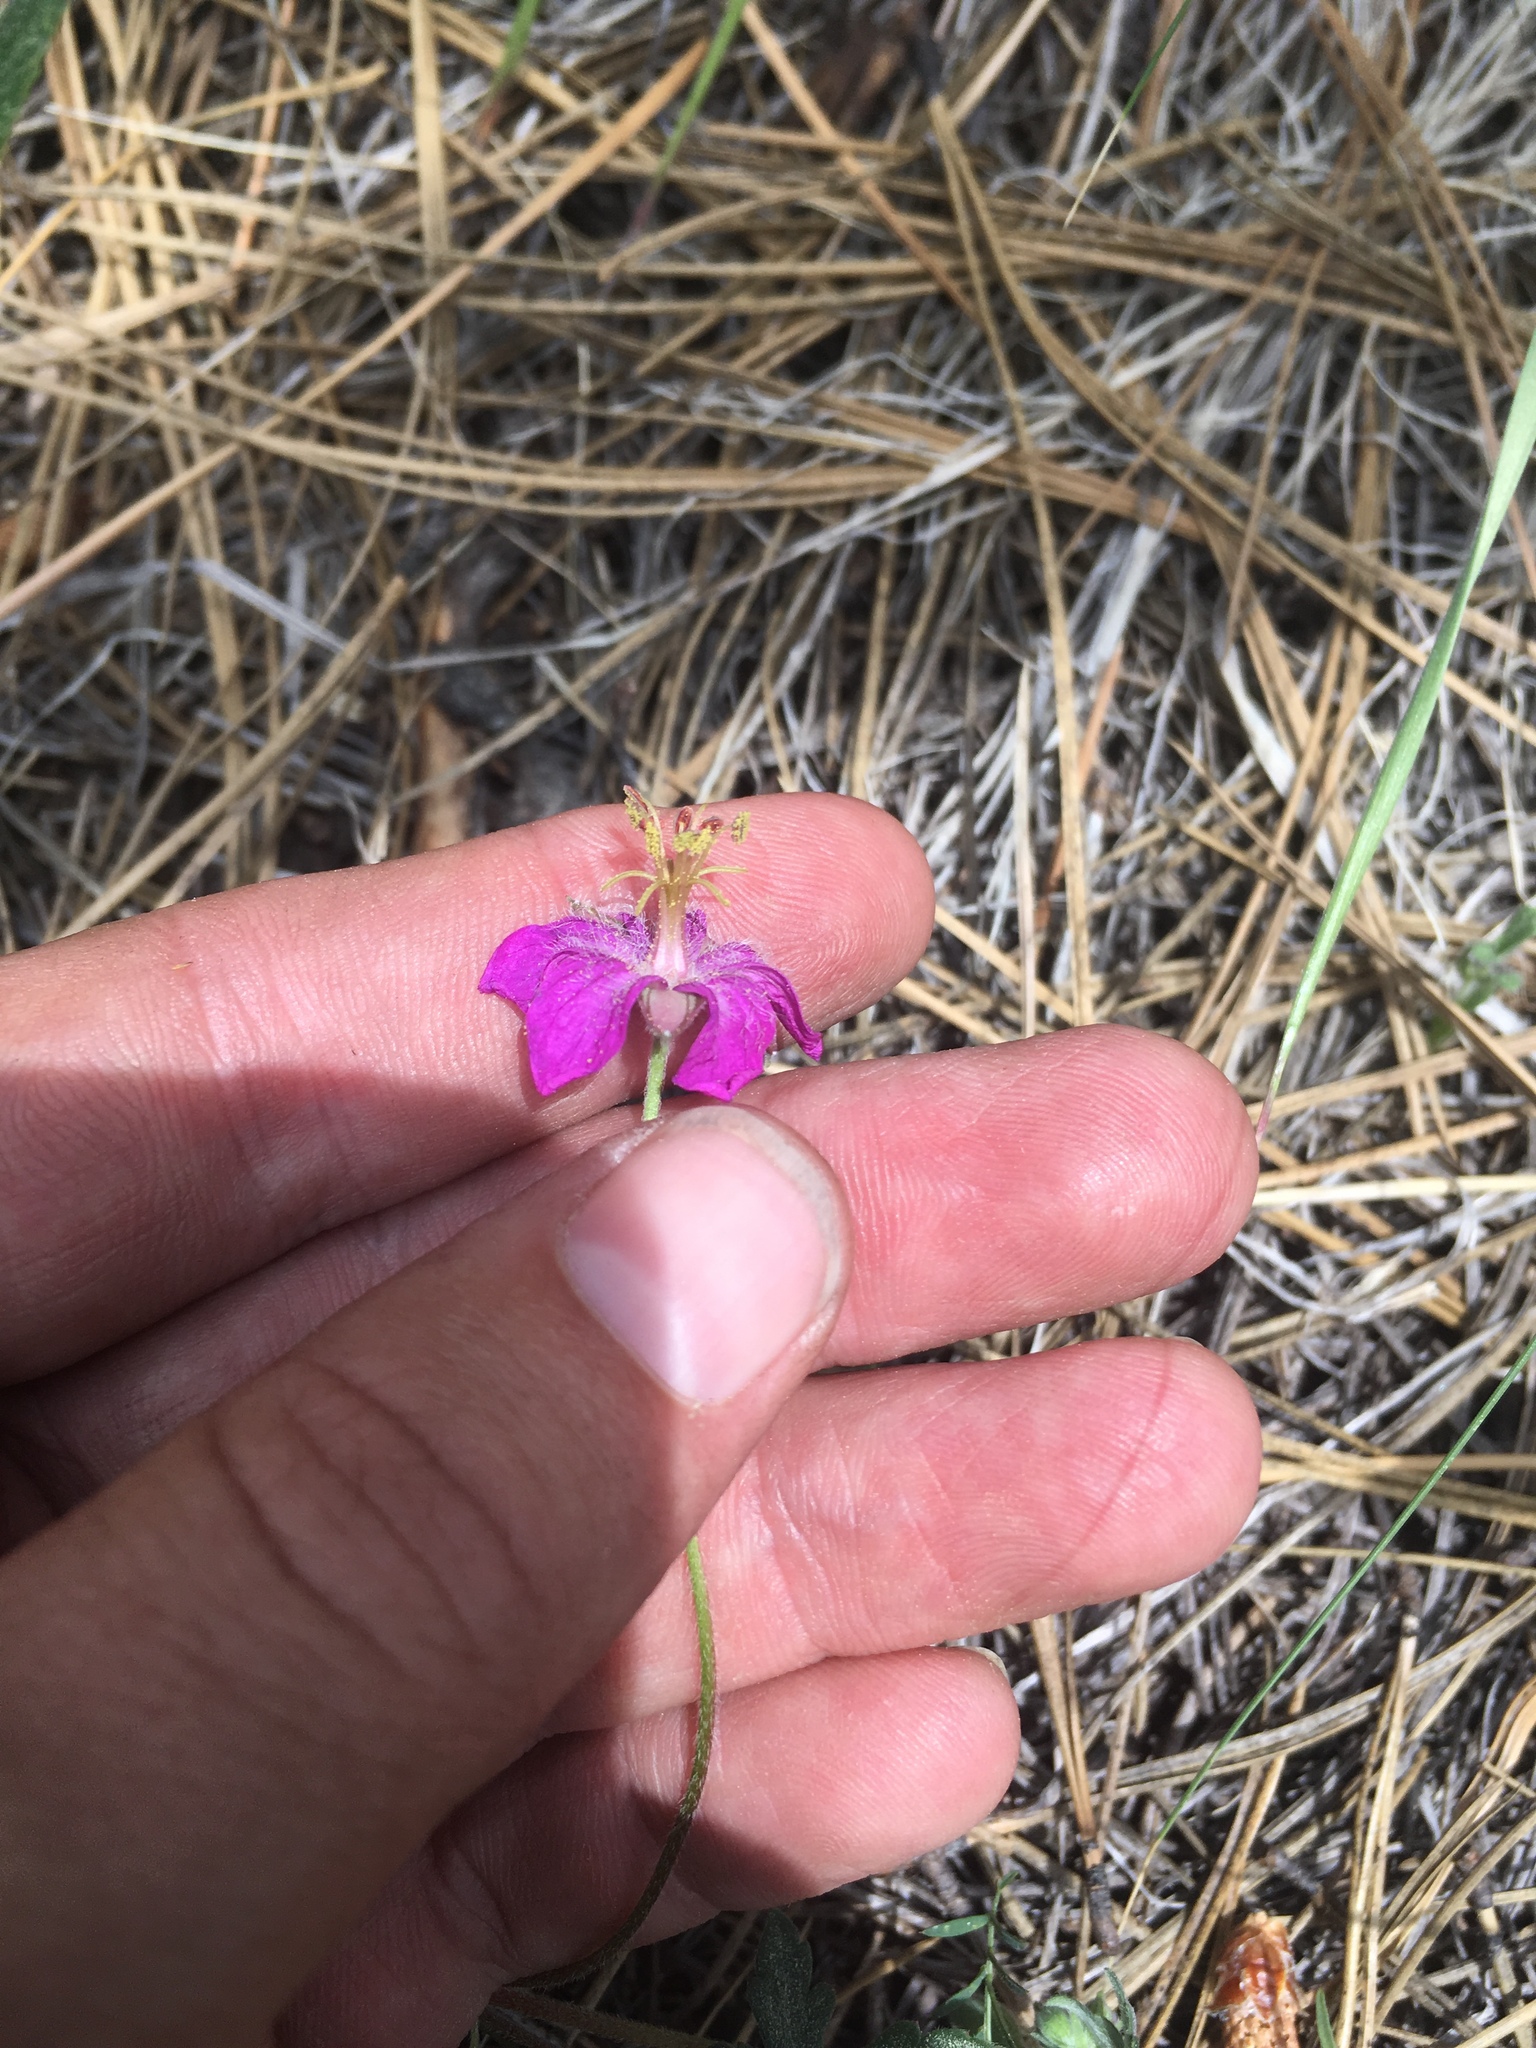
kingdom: Plantae
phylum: Tracheophyta
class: Magnoliopsida
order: Geraniales
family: Geraniaceae
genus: Geranium
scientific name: Geranium caespitosum
